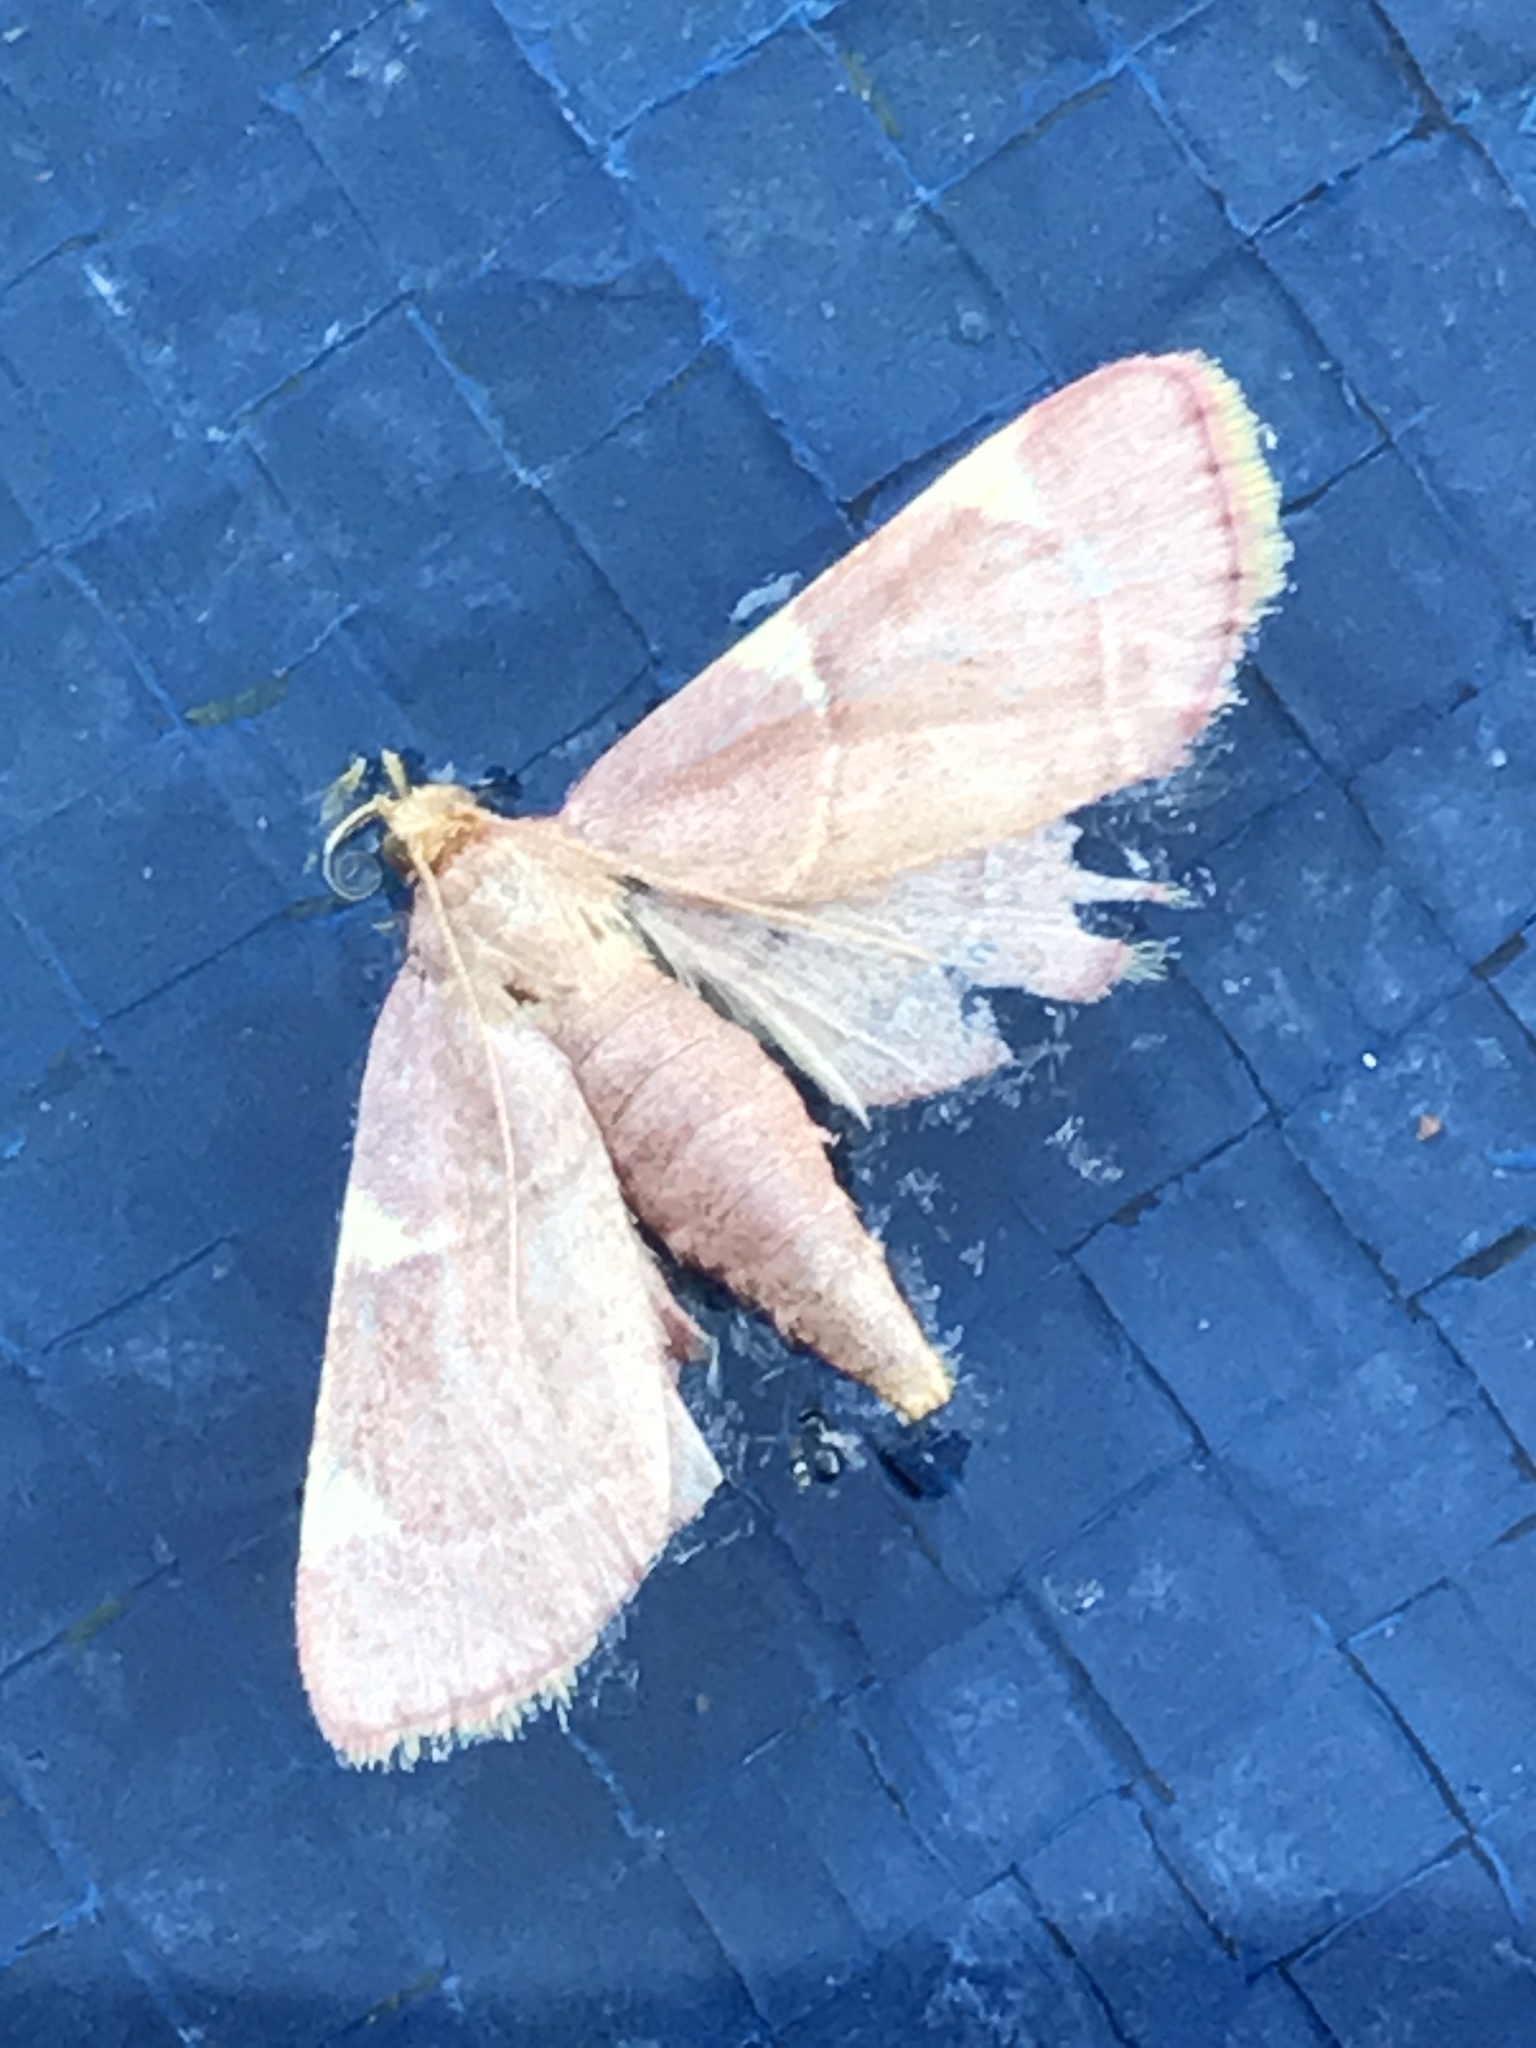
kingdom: Animalia
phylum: Arthropoda
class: Insecta
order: Lepidoptera
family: Pyralidae
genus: Hypsopygia
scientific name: Hypsopygia olinalis
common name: Yellow-fringed dolichomia moth
